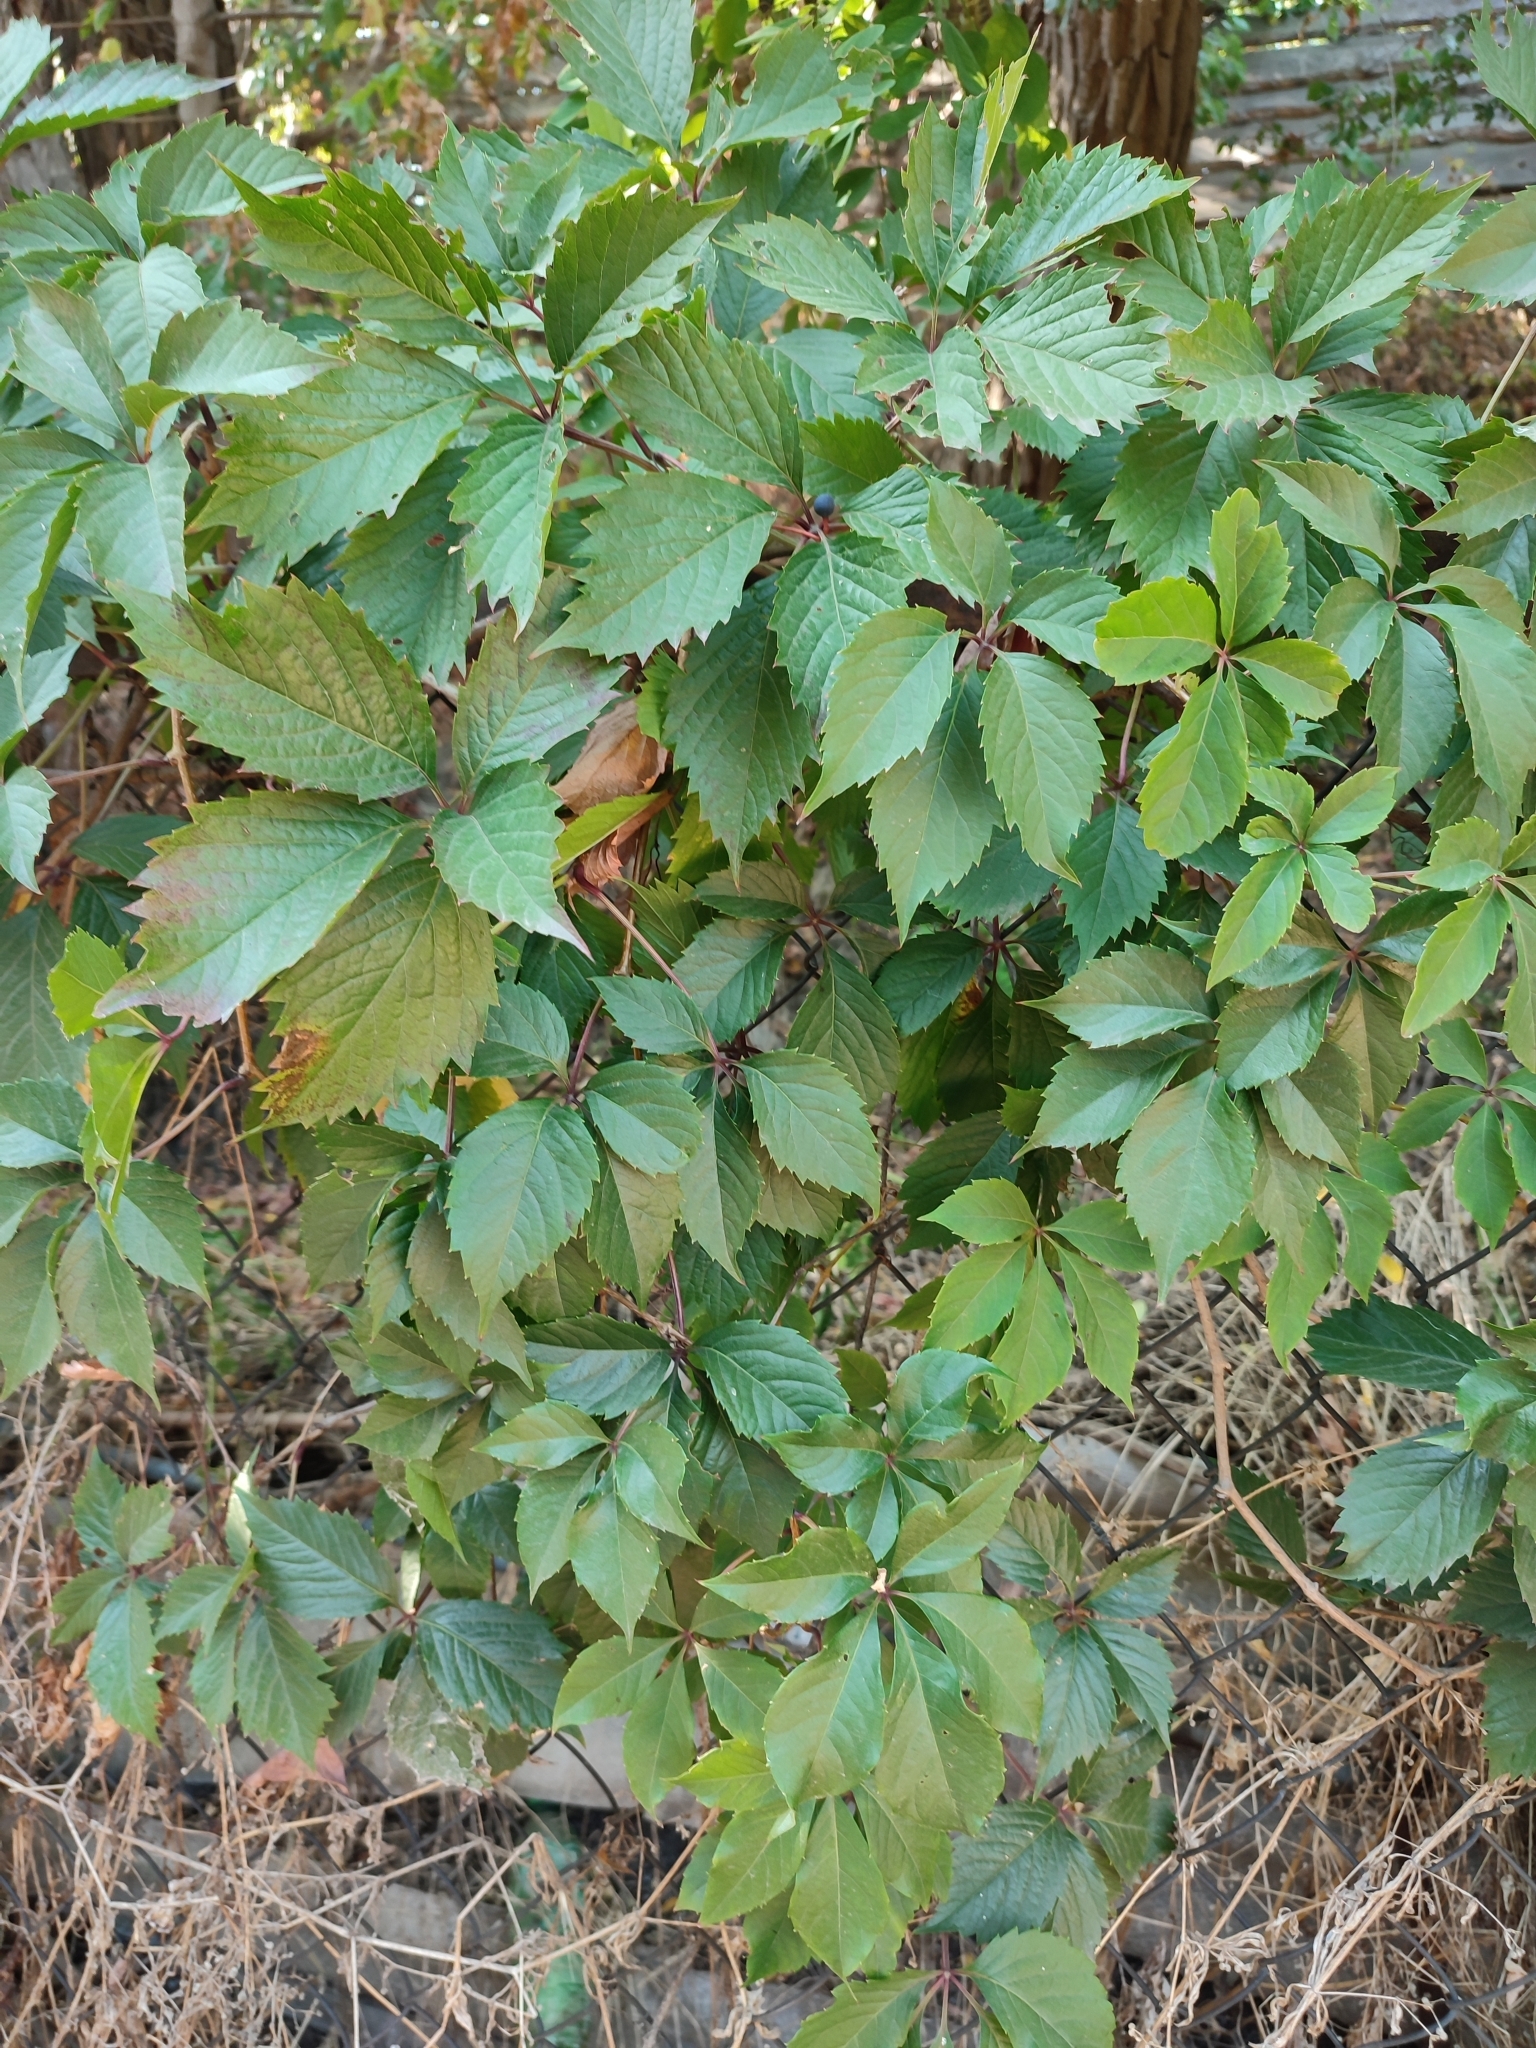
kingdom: Plantae
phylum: Tracheophyta
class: Magnoliopsida
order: Vitales
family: Vitaceae
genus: Parthenocissus
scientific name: Parthenocissus inserta
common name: False virginia-creeper
